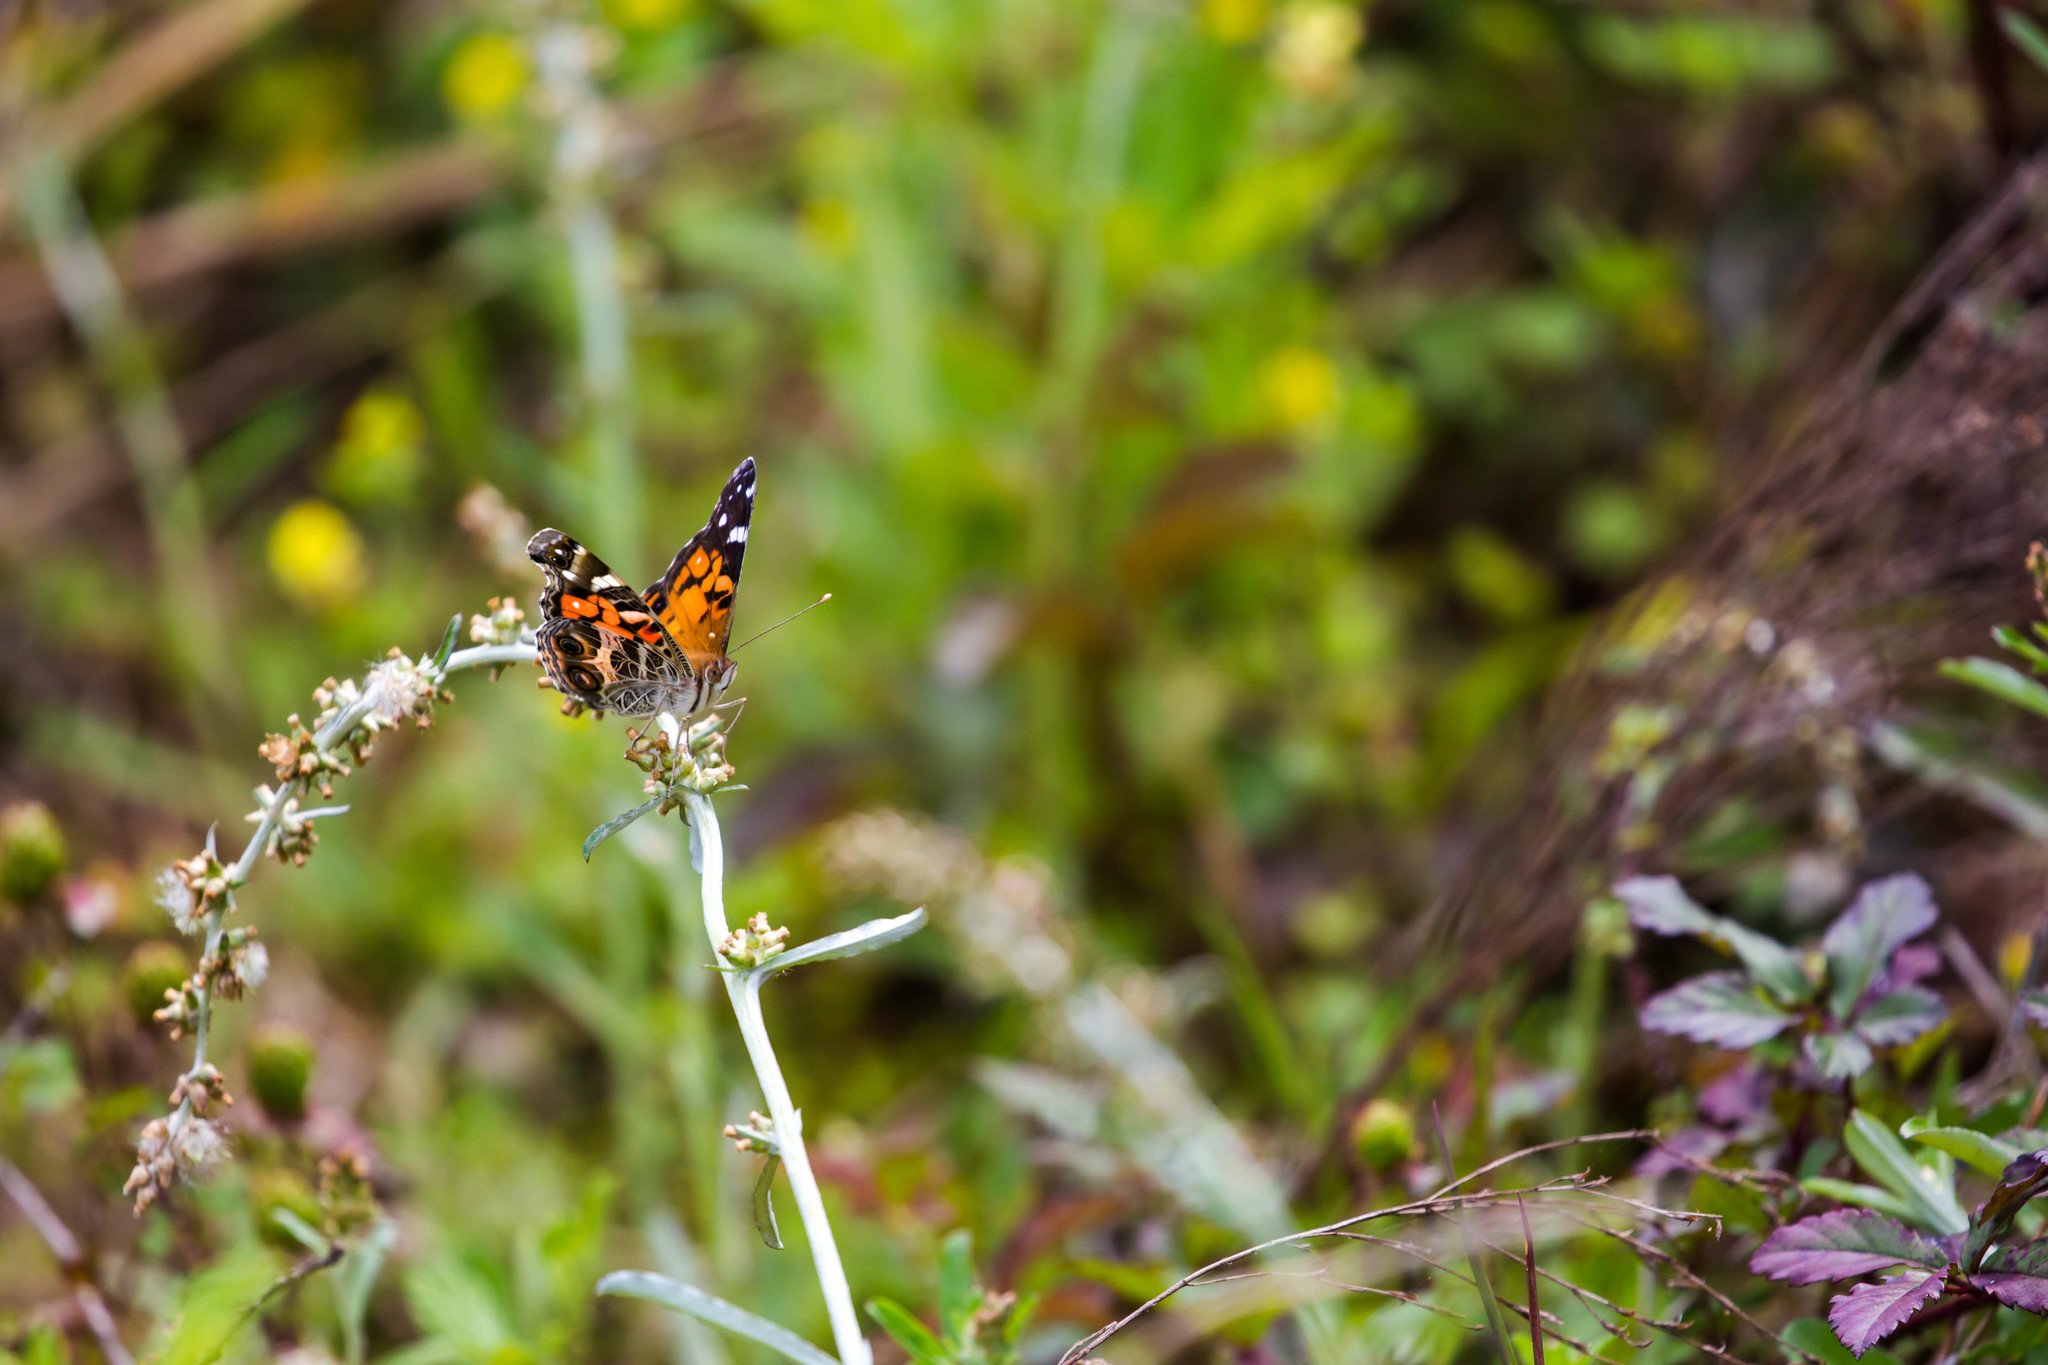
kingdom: Animalia
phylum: Arthropoda
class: Insecta
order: Lepidoptera
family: Nymphalidae
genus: Vanessa
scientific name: Vanessa virginiensis
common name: American lady
